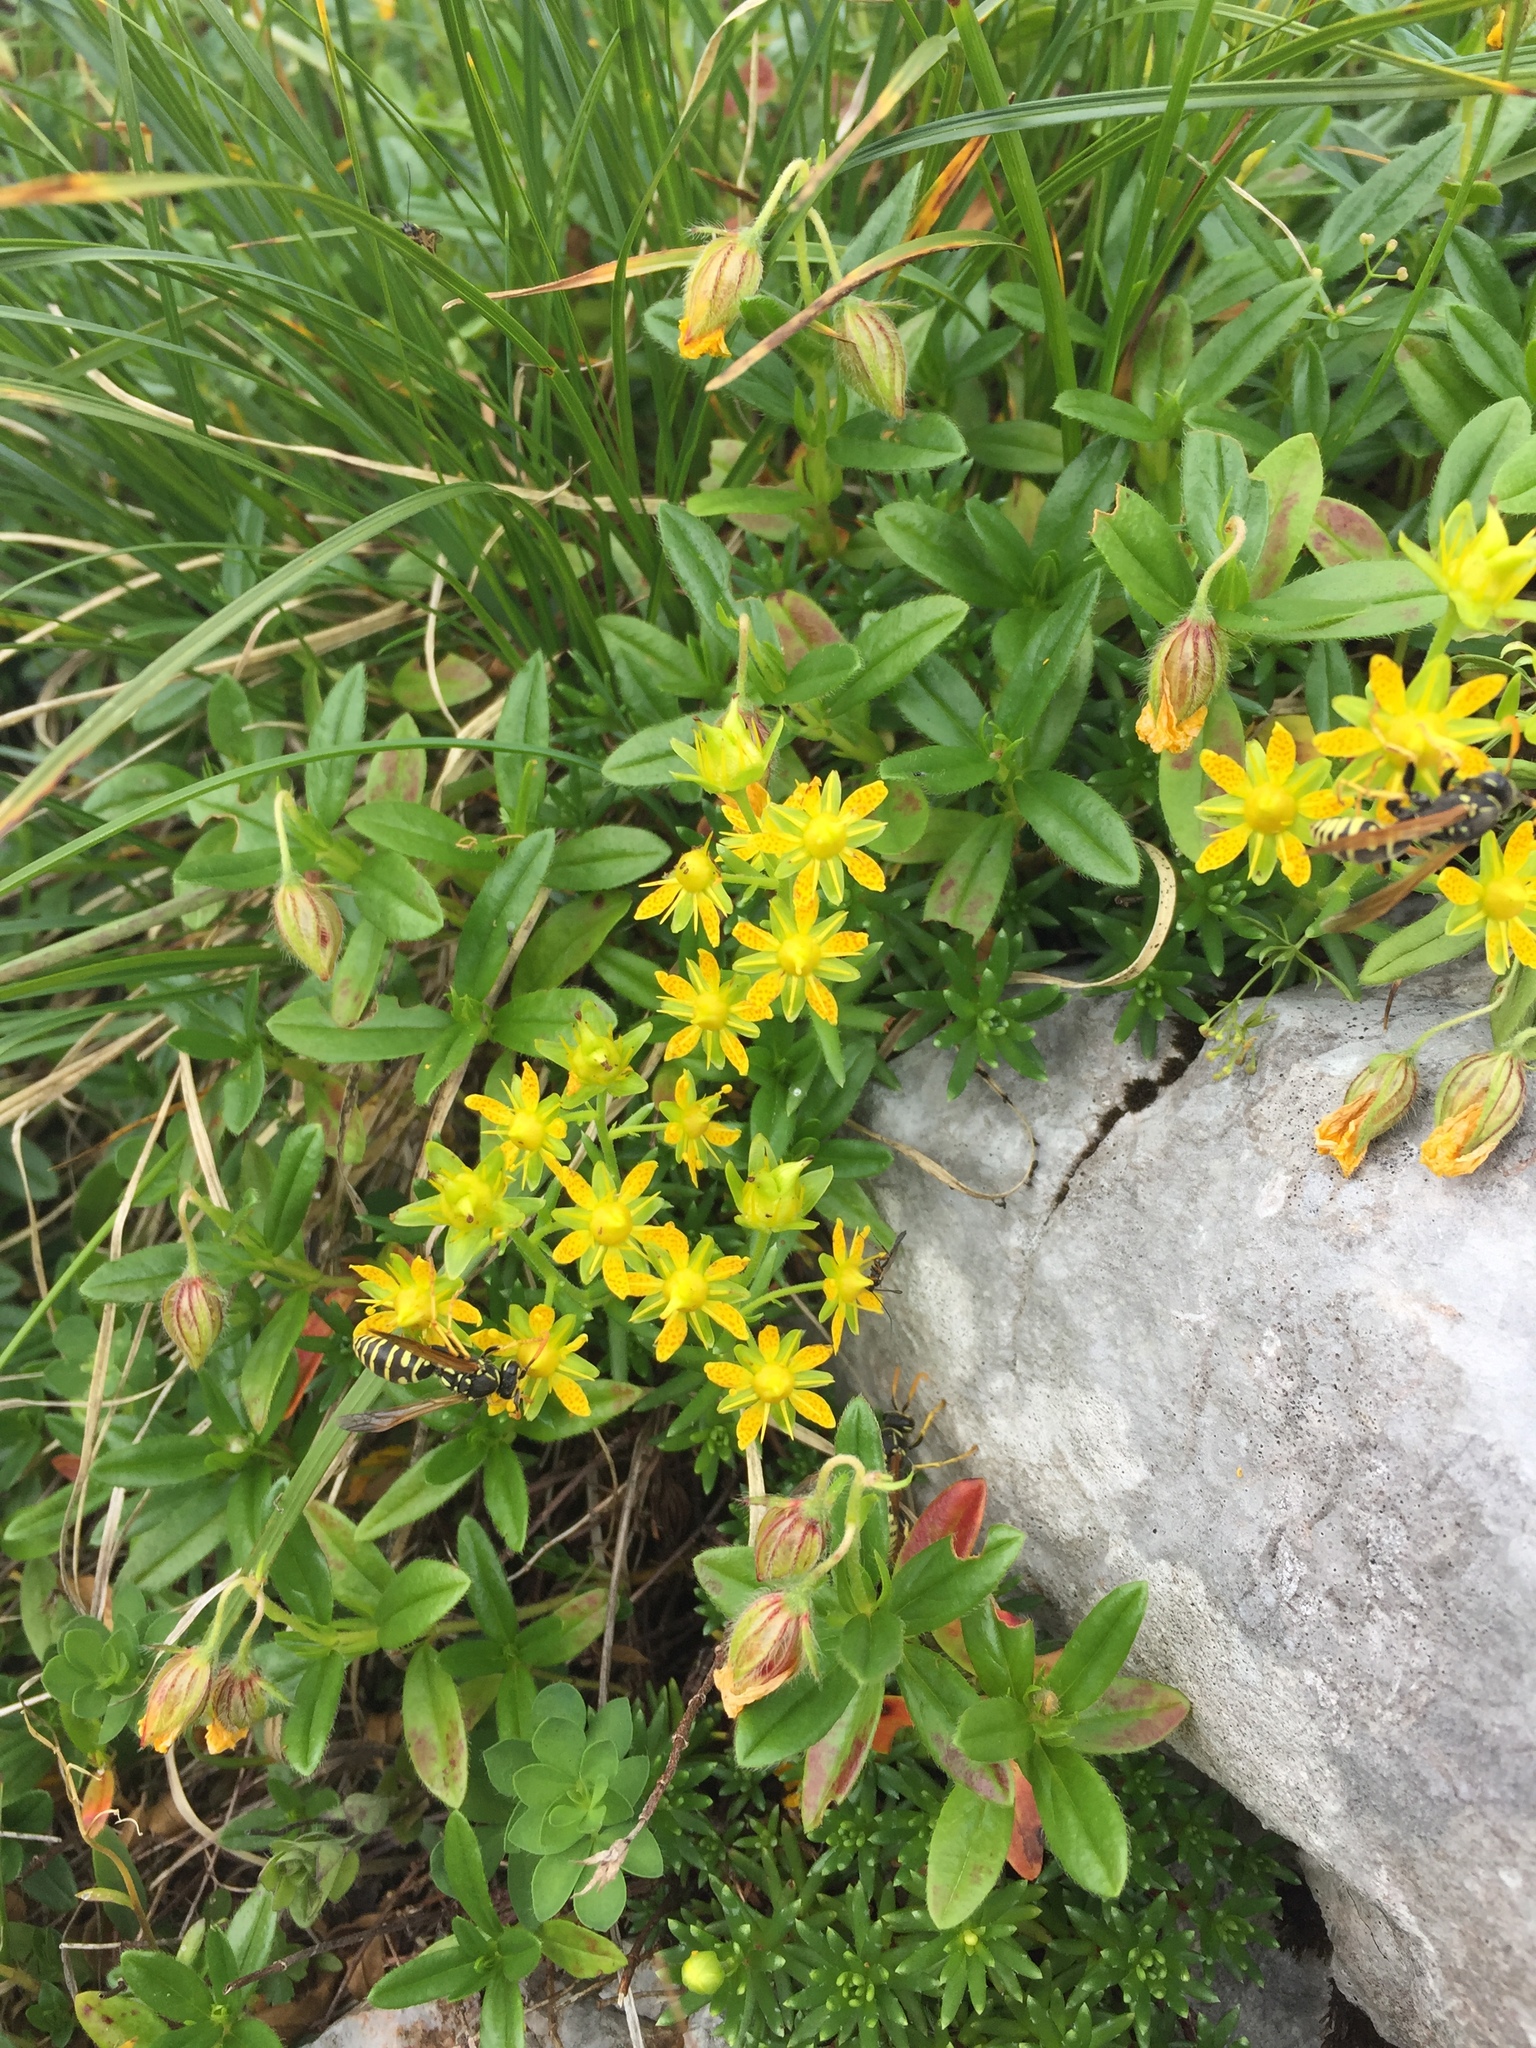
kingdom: Plantae
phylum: Tracheophyta
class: Magnoliopsida
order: Saxifragales
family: Saxifragaceae
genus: Saxifraga
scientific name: Saxifraga aizoides
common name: Yellow mountain saxifrage
